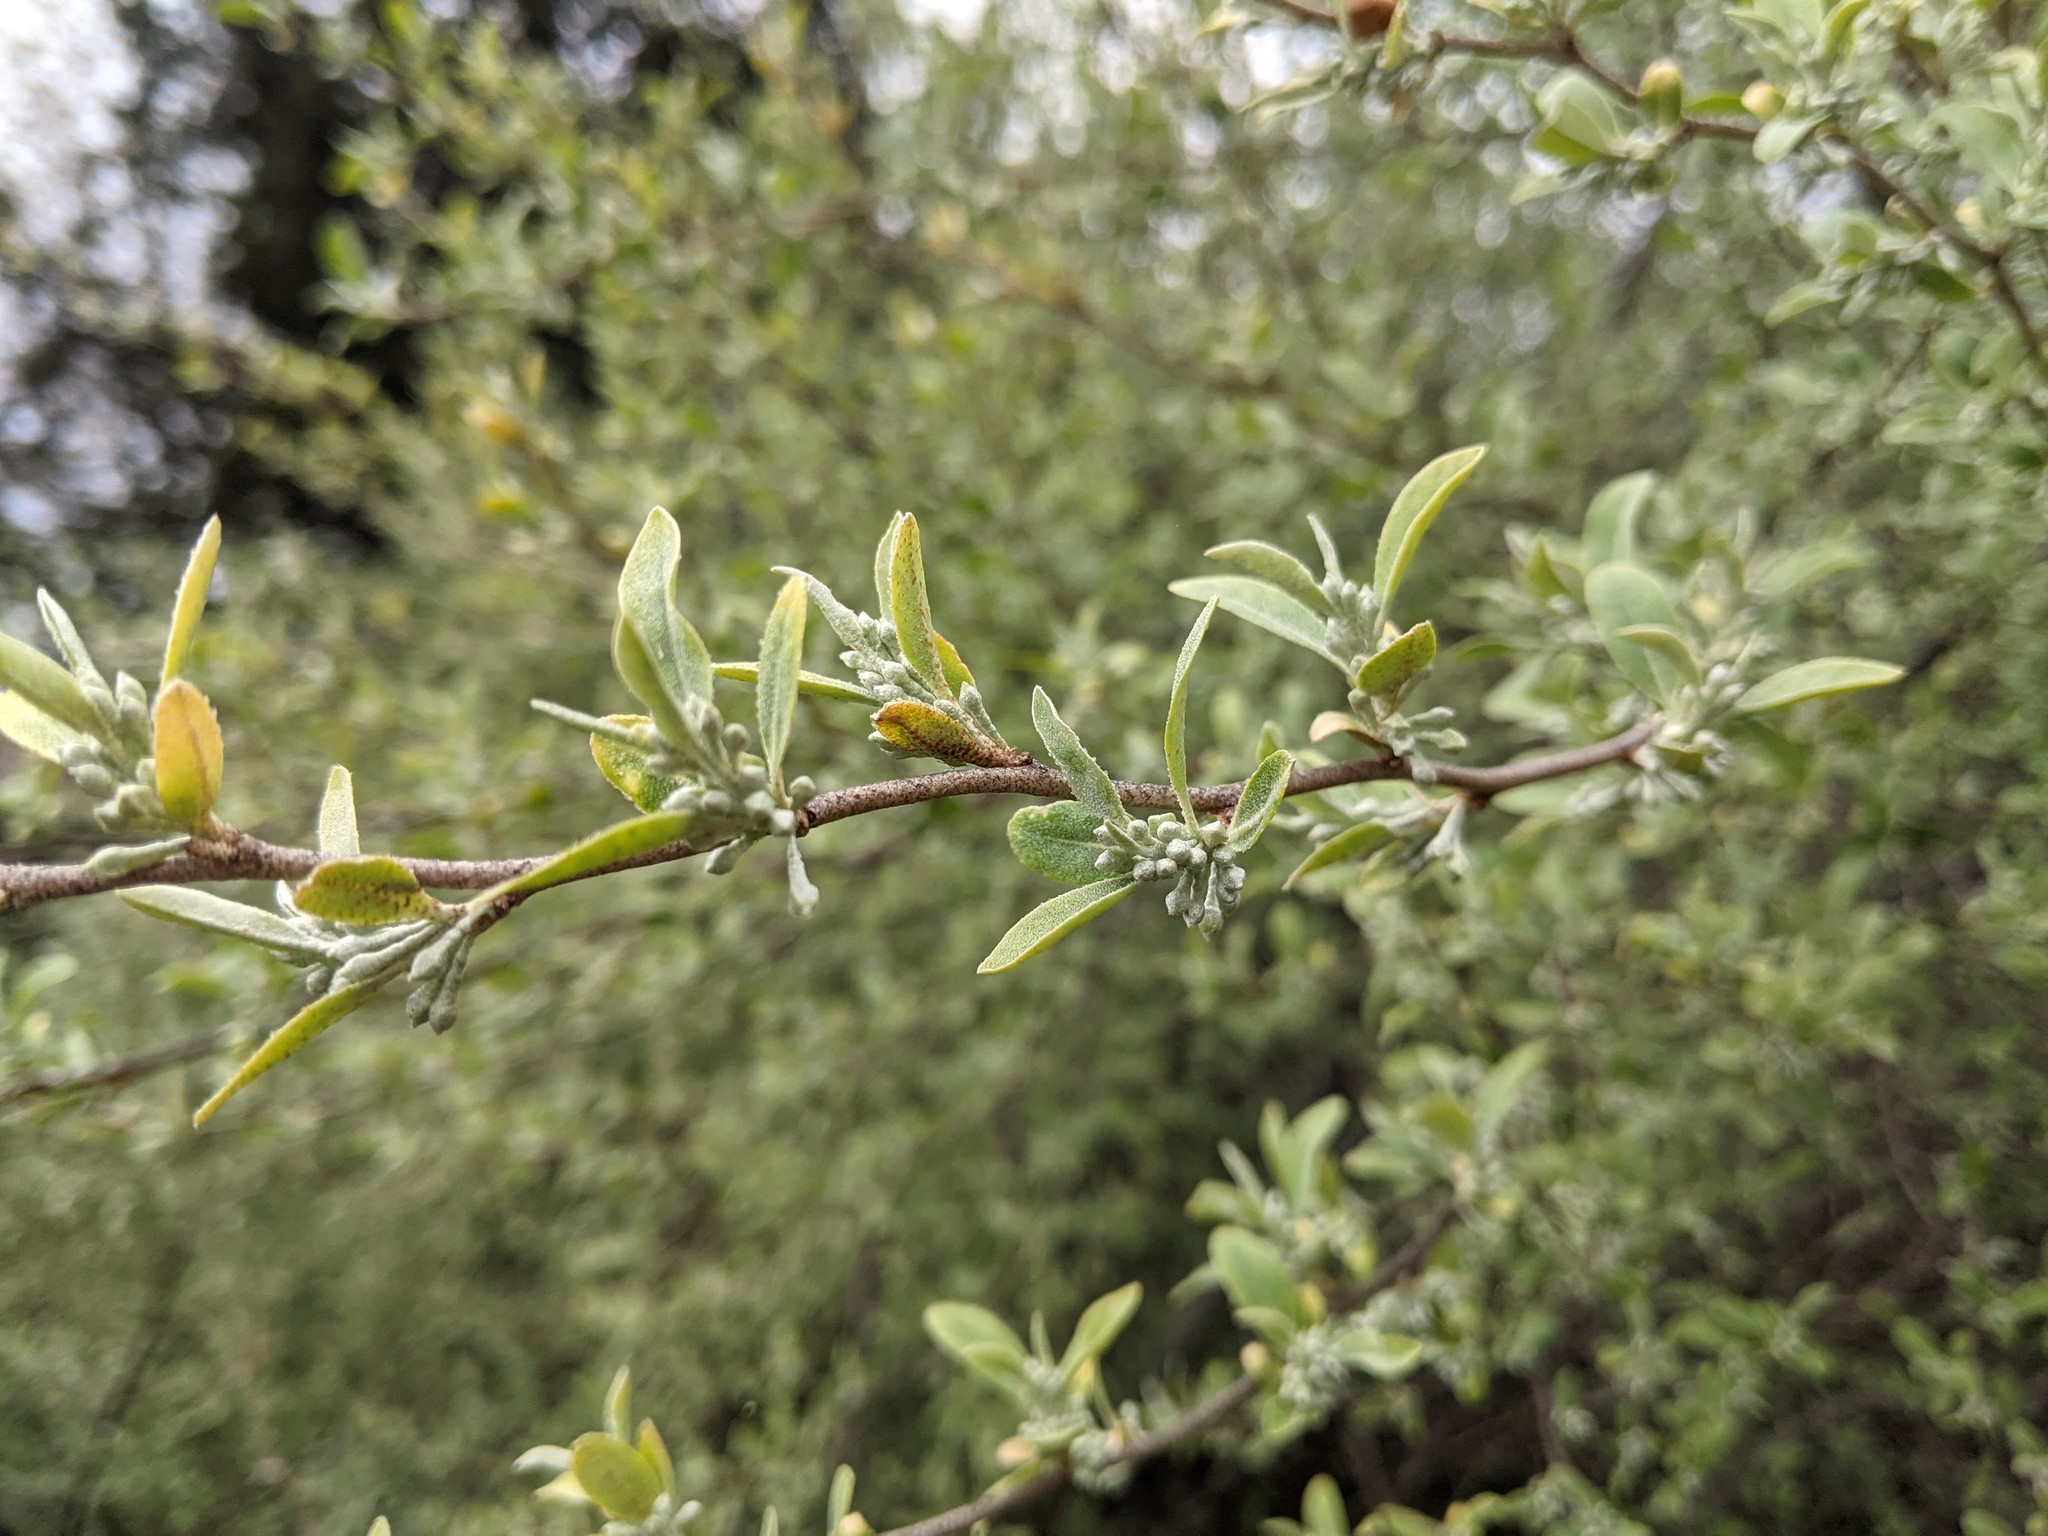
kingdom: Plantae
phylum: Tracheophyta
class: Magnoliopsida
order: Rosales
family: Elaeagnaceae
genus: Elaeagnus
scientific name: Elaeagnus umbellata
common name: Autumn olive
